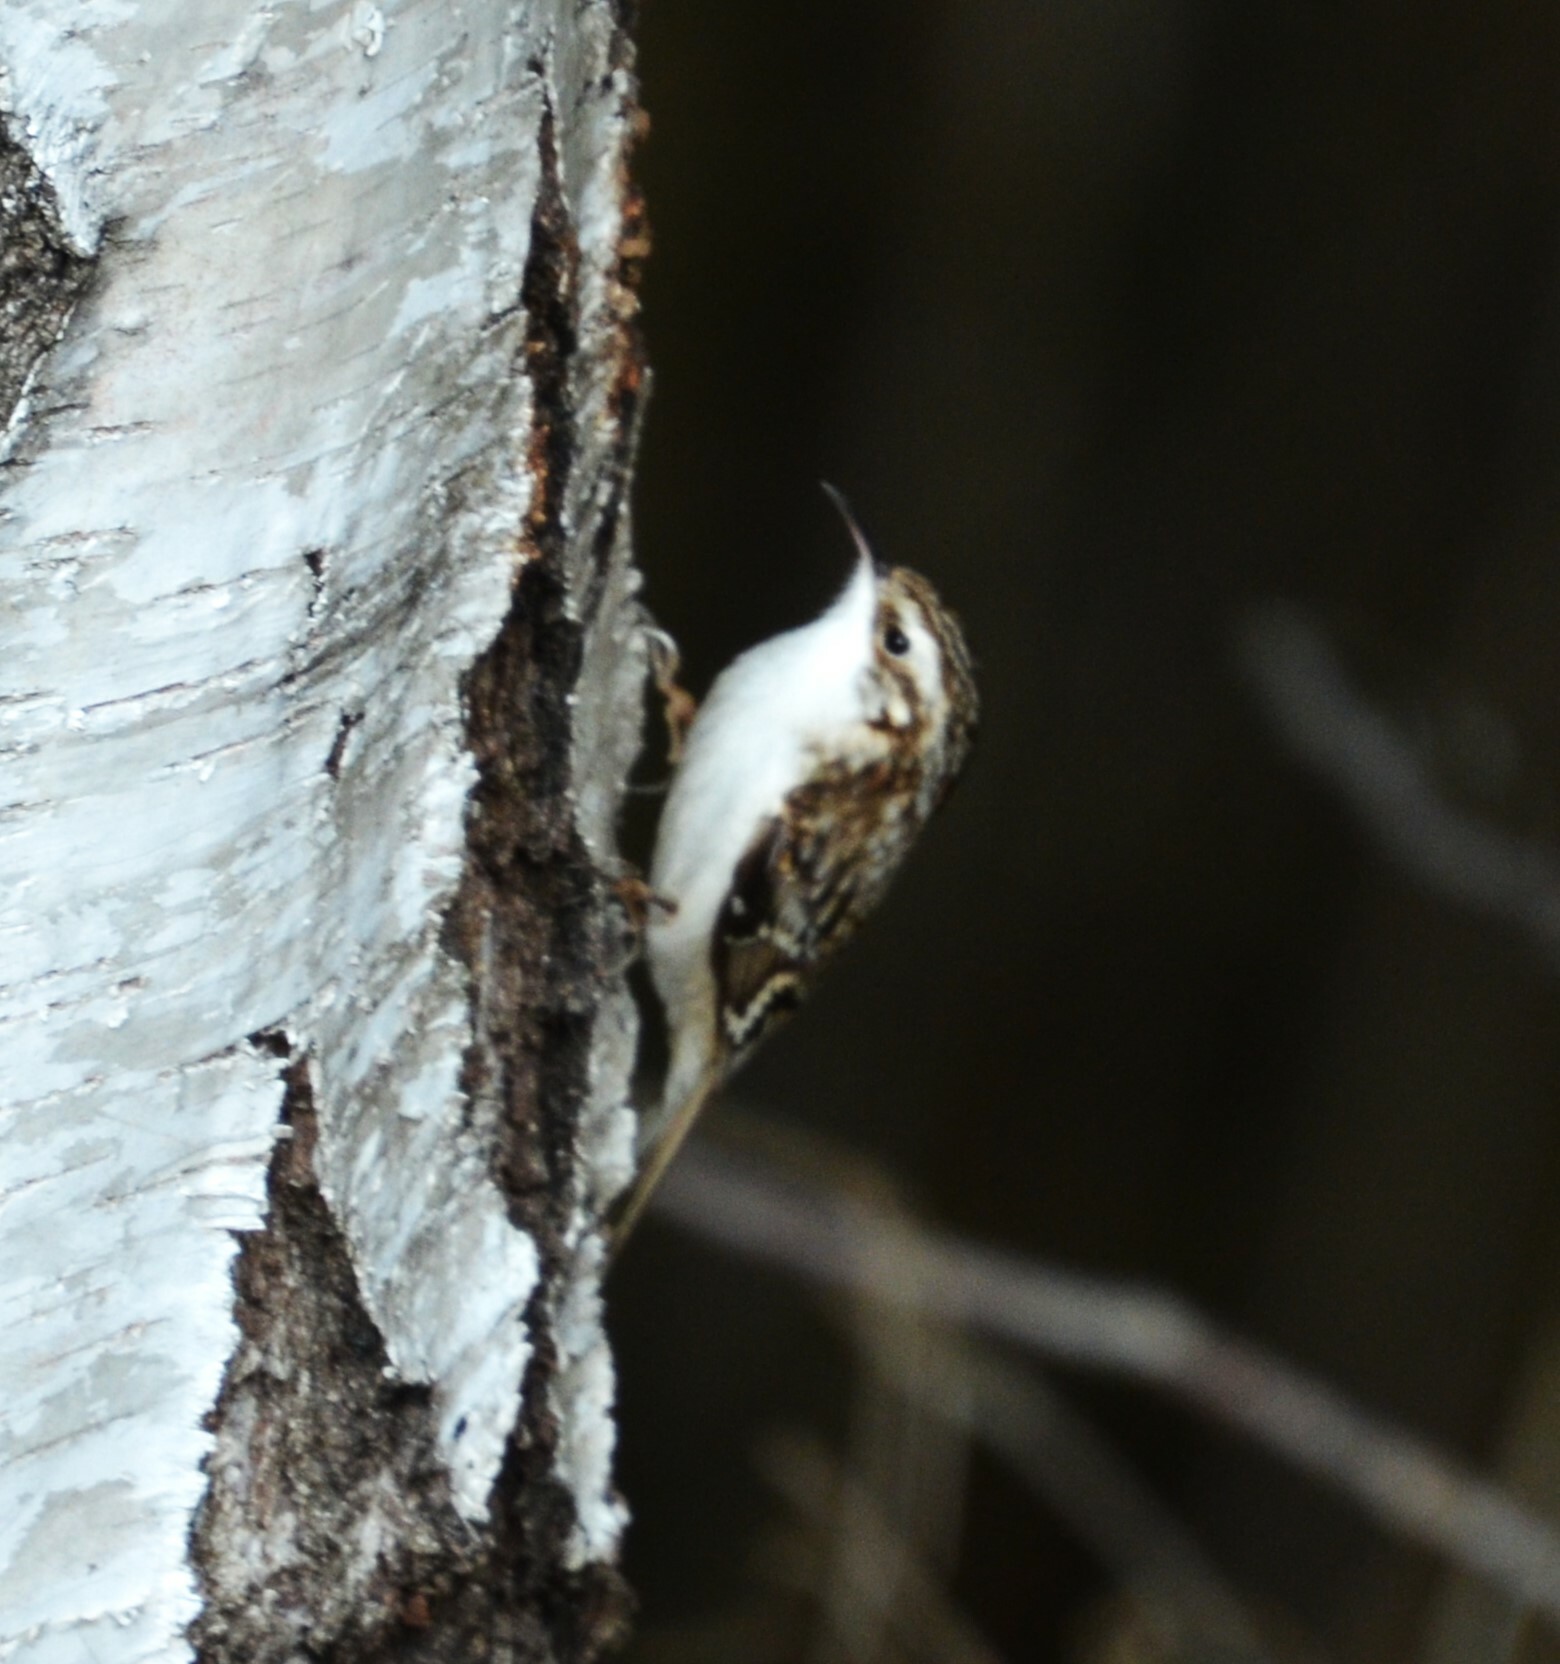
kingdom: Animalia
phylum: Chordata
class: Aves
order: Passeriformes
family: Certhiidae
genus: Certhia
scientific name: Certhia familiaris
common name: Eurasian treecreeper
